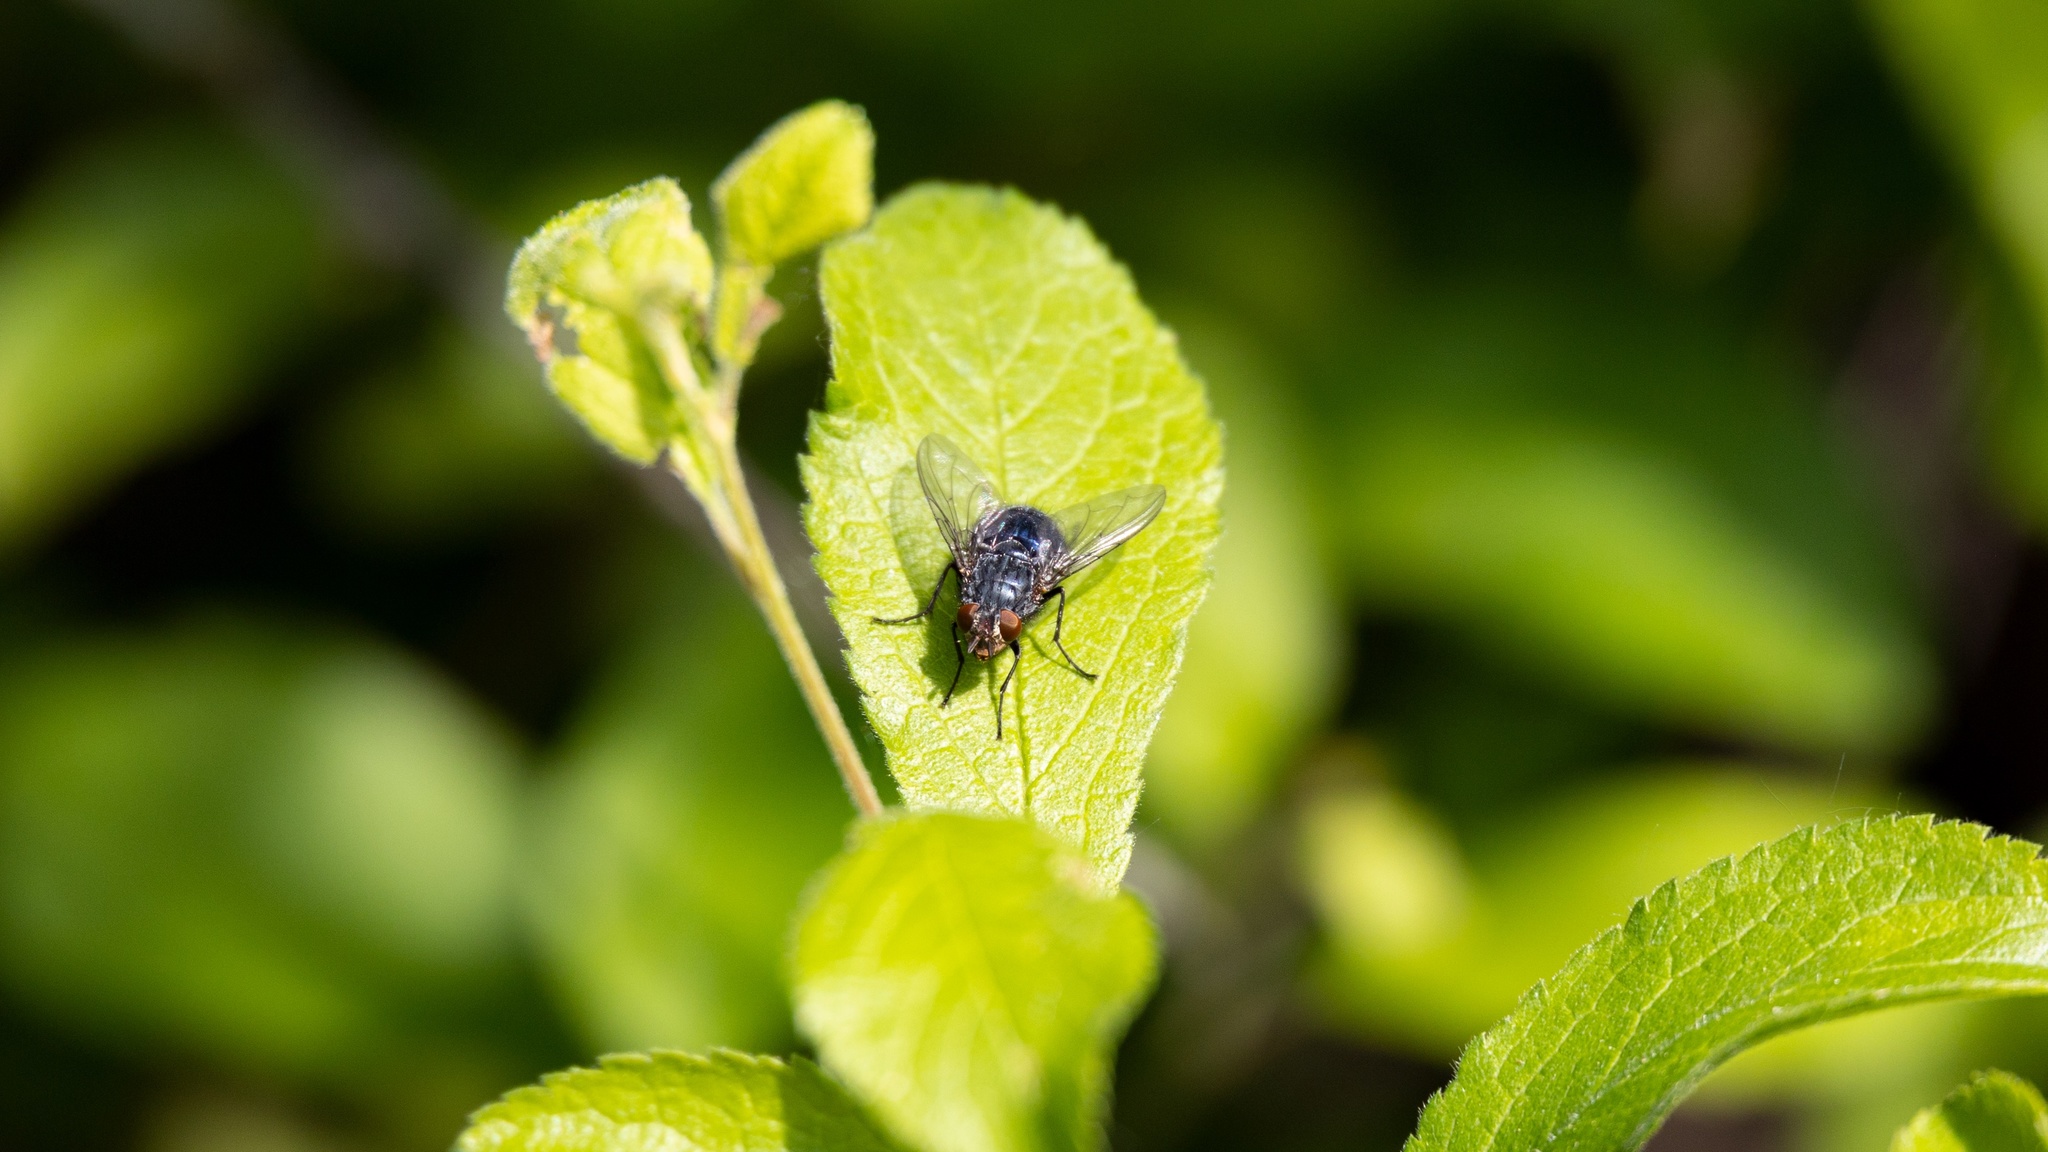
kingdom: Animalia
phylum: Arthropoda
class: Insecta
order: Diptera
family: Calliphoridae
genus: Calliphora
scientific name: Calliphora vicina
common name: Common blow flie
